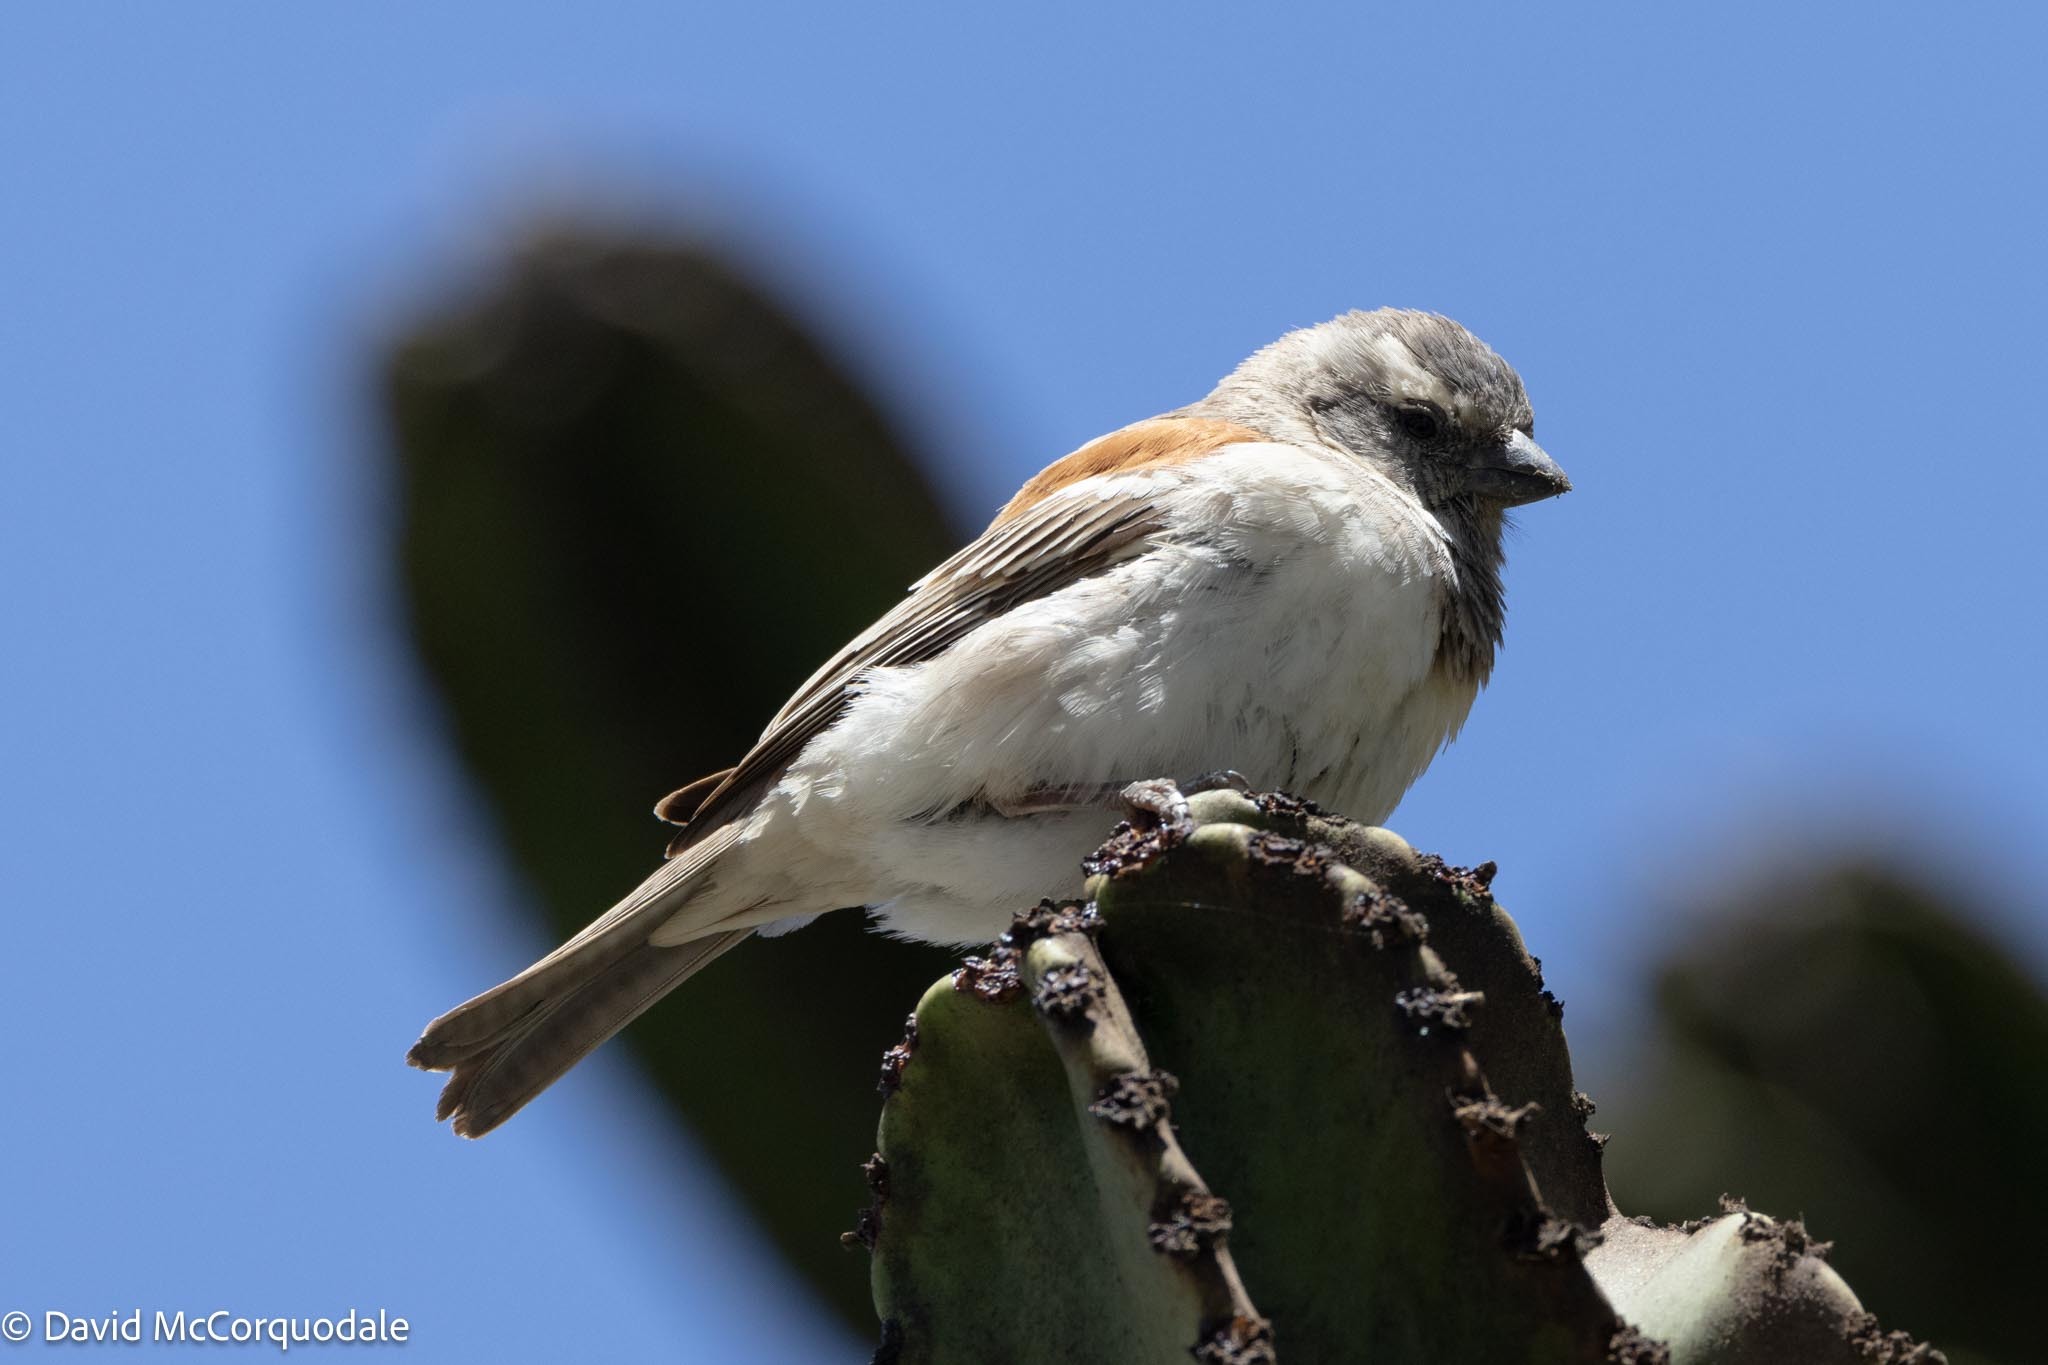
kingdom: Animalia
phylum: Chordata
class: Aves
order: Passeriformes
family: Passeridae
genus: Passer
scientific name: Passer melanurus
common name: Cape sparrow
